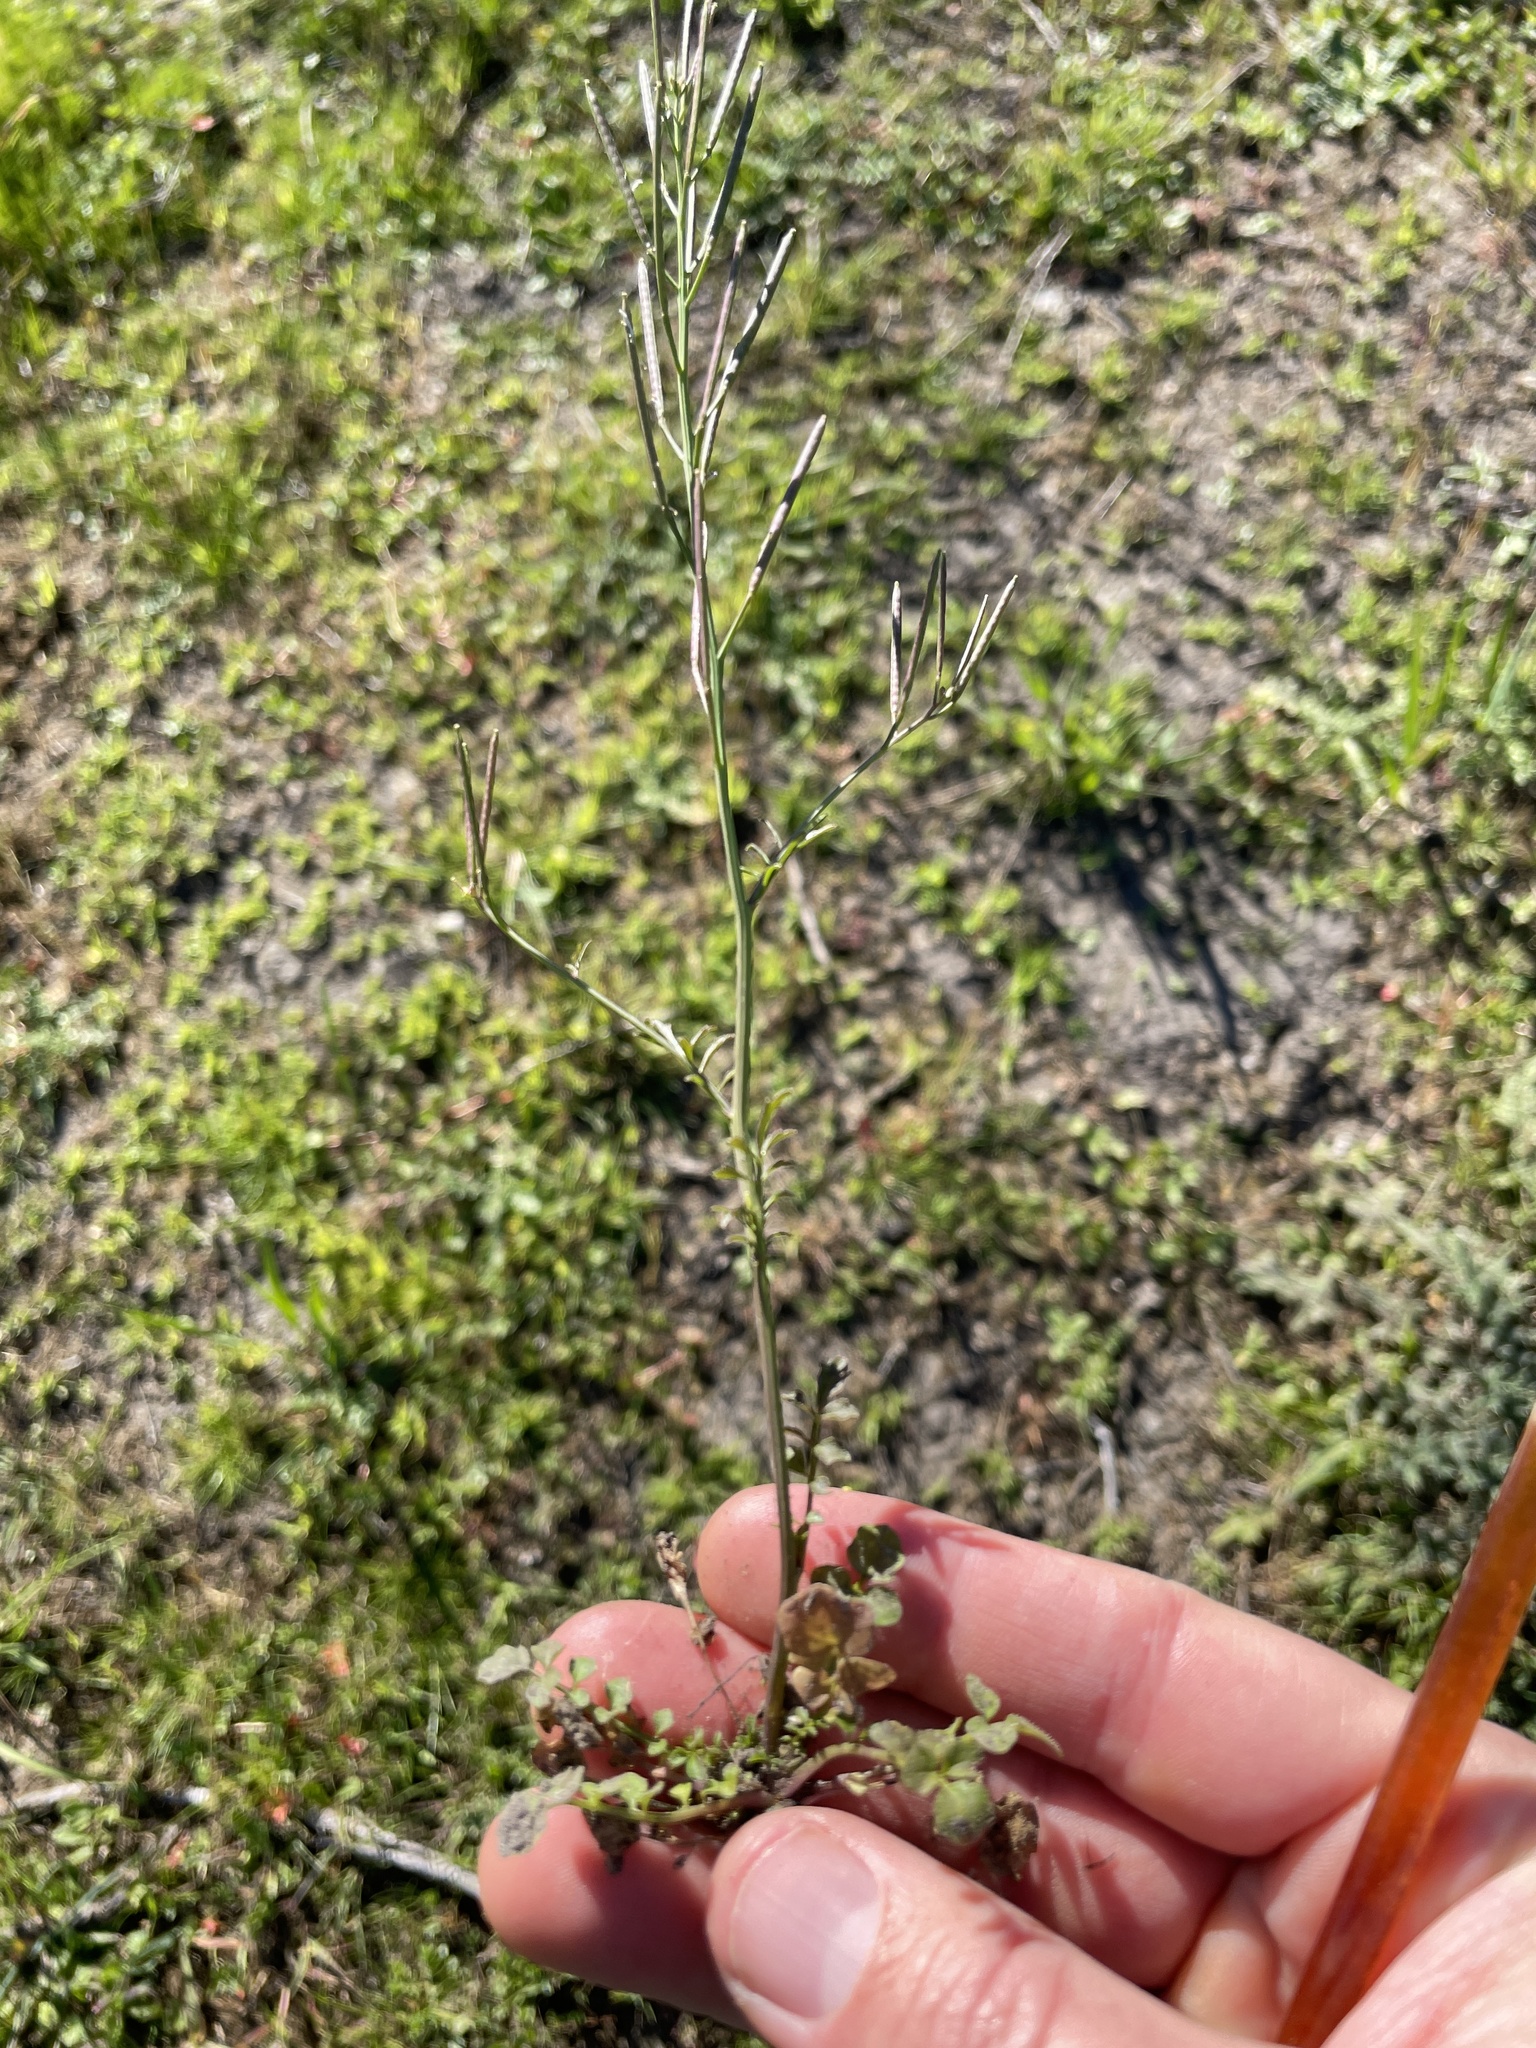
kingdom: Plantae
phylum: Tracheophyta
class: Magnoliopsida
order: Brassicales
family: Brassicaceae
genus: Cardamine
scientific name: Cardamine hirsuta
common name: Hairy bittercress
